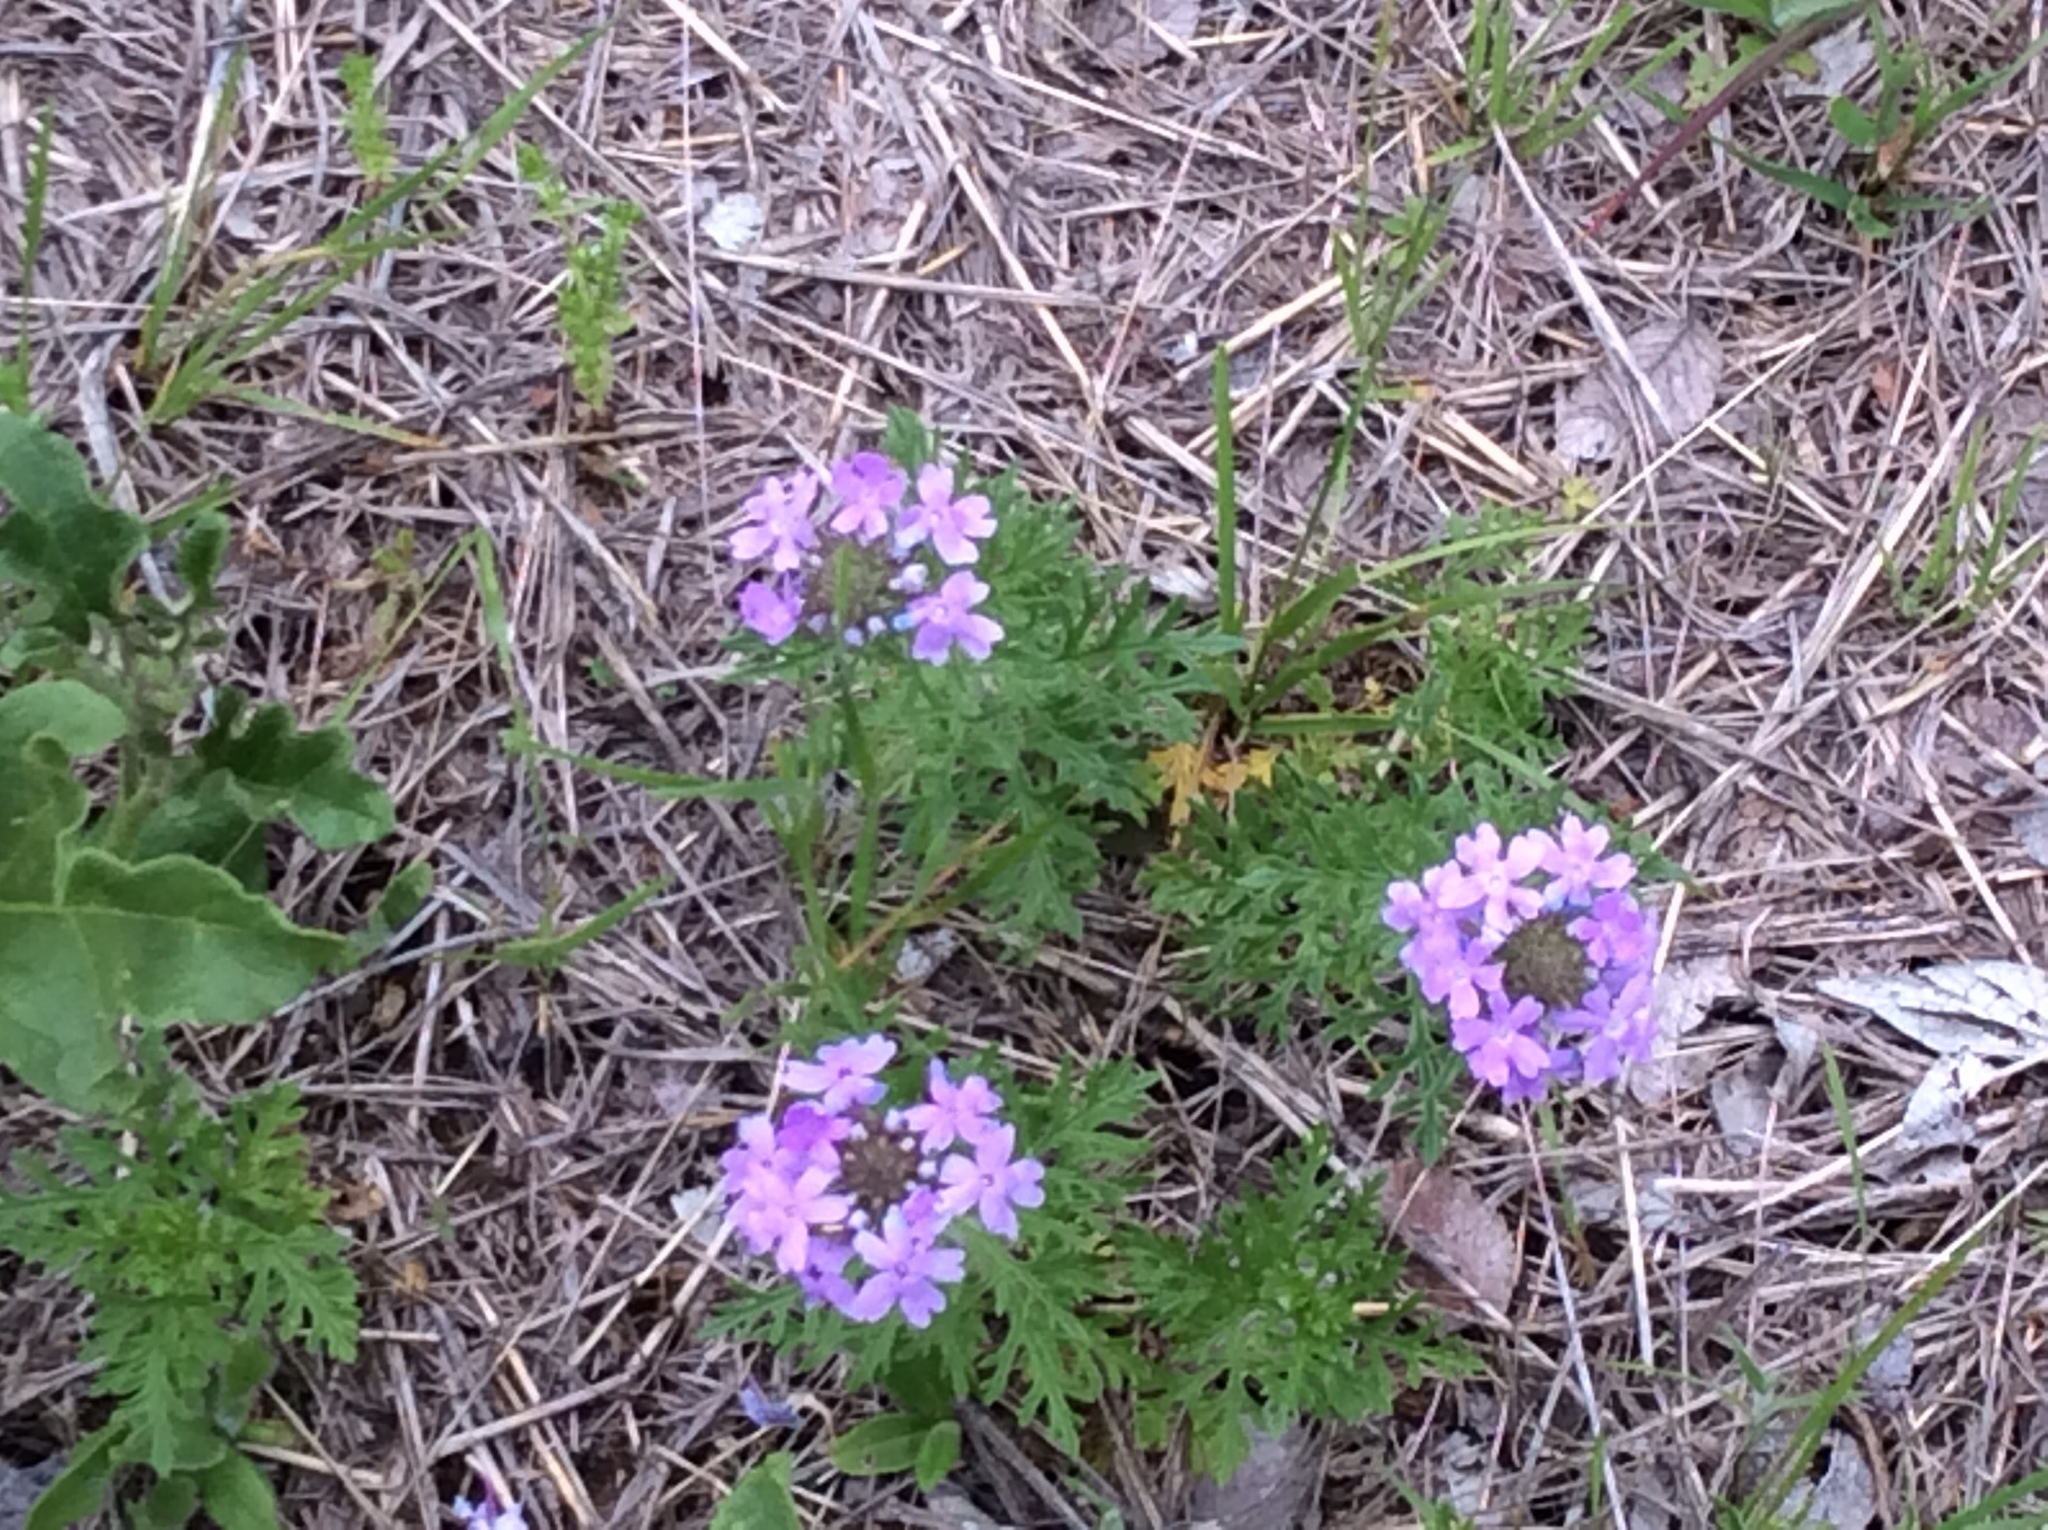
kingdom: Plantae
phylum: Tracheophyta
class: Magnoliopsida
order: Lamiales
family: Verbenaceae
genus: Verbena
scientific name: Verbena bipinnatifida
